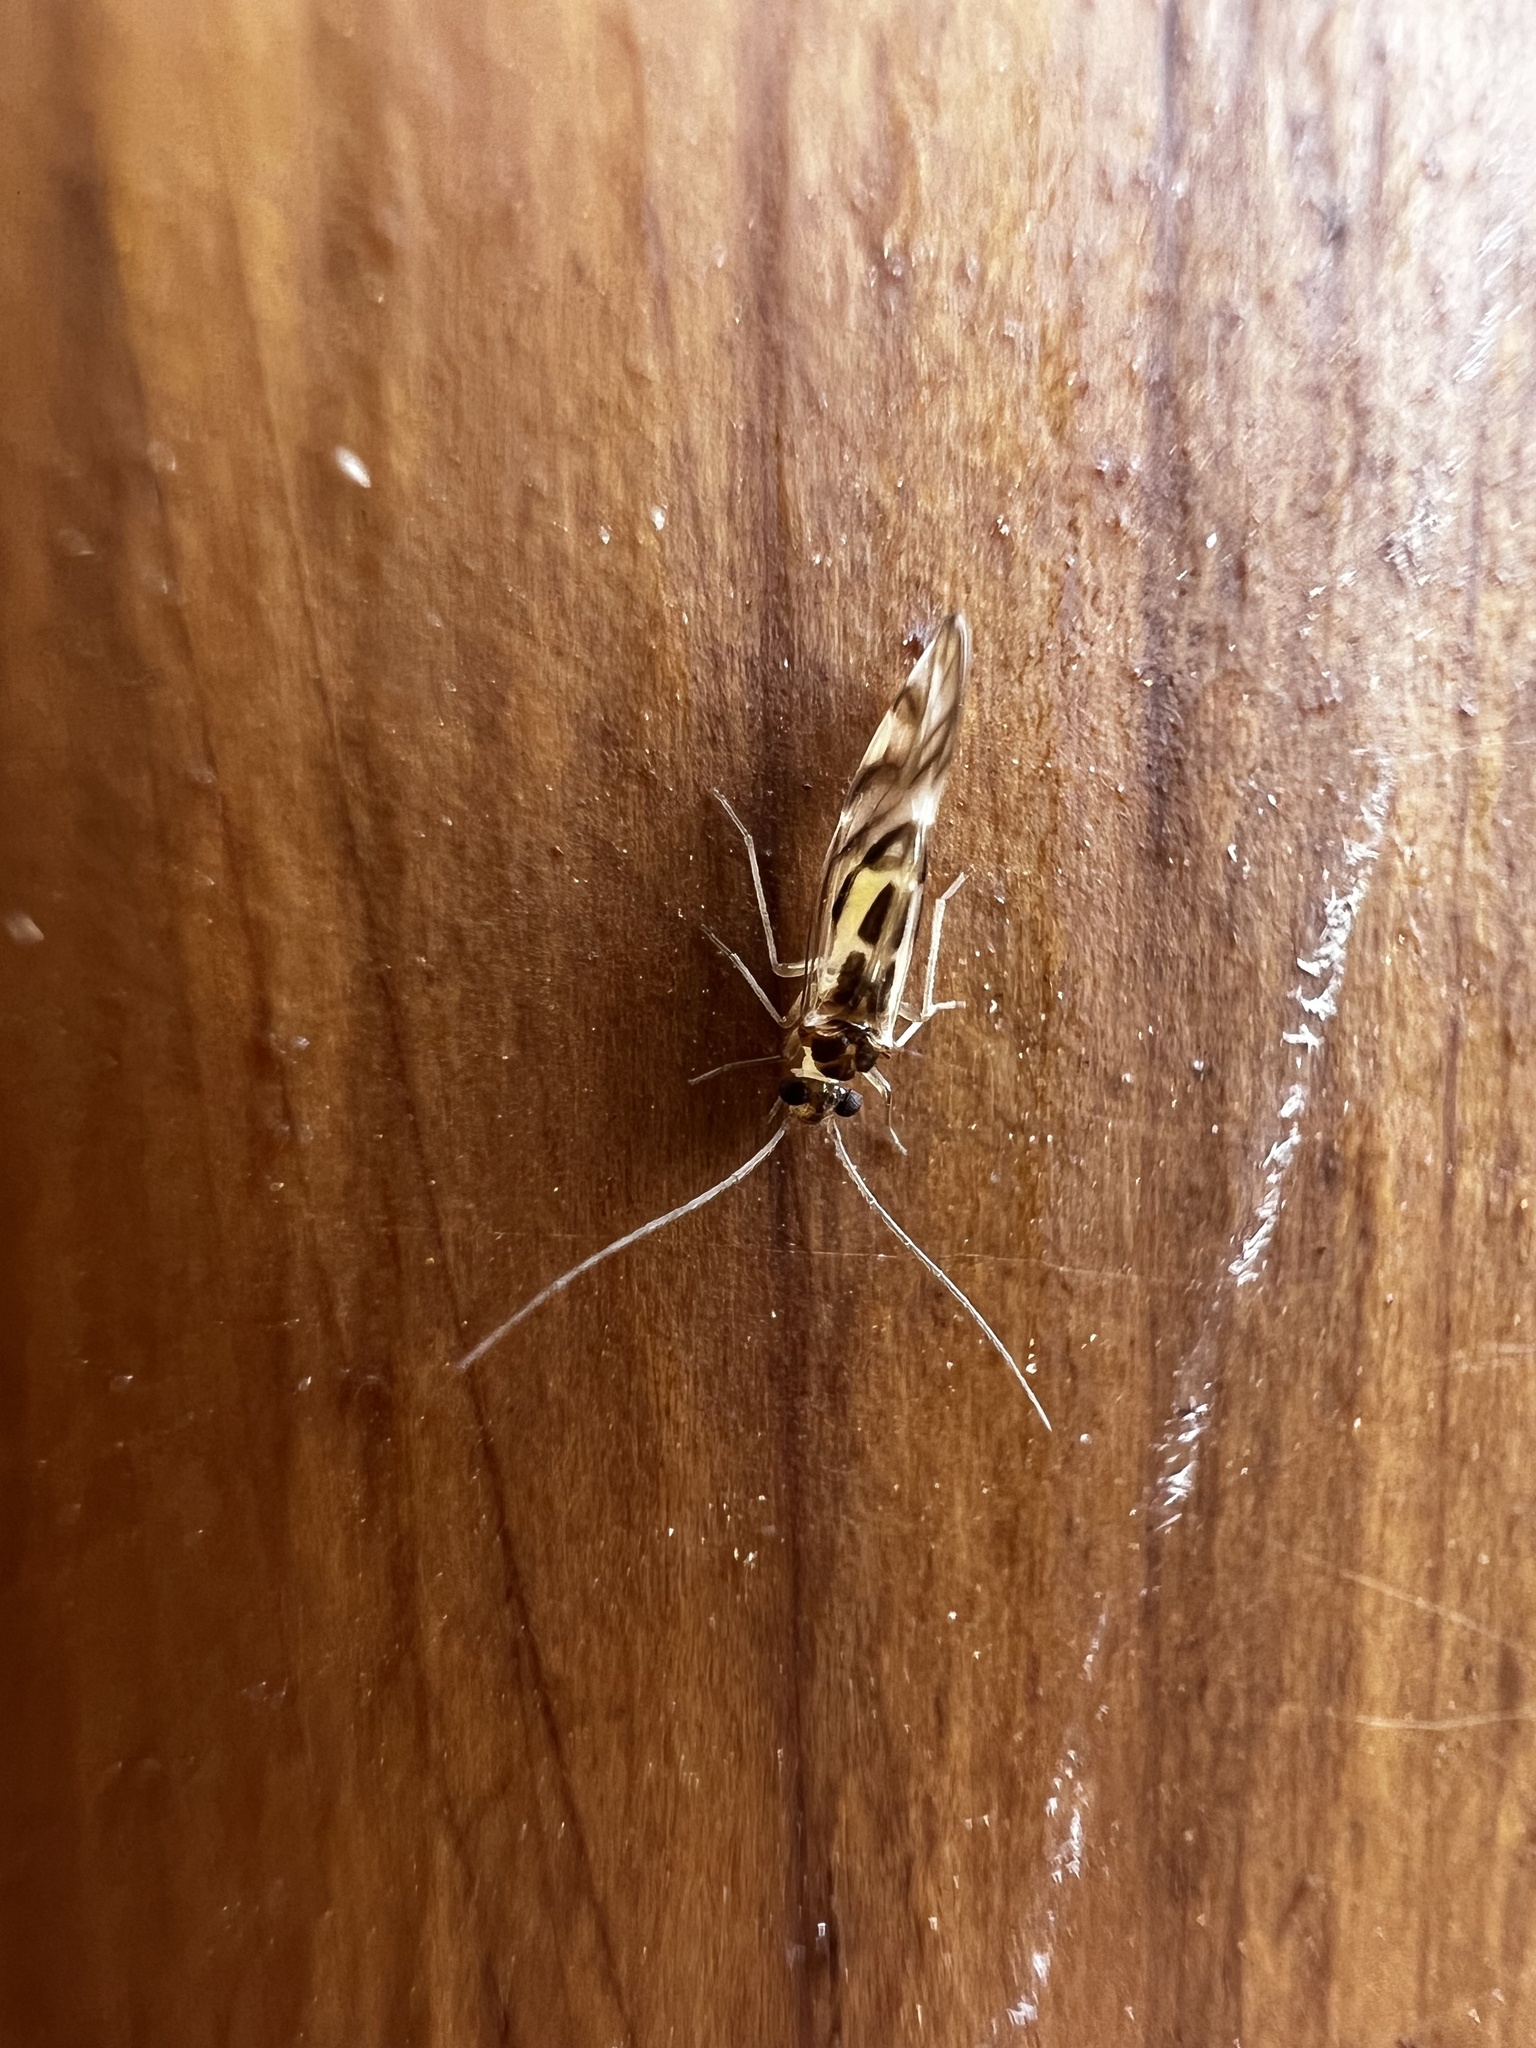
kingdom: Animalia
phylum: Arthropoda
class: Insecta
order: Psocodea
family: Stenopsocidae
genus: Graphopsocus
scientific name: Graphopsocus cruciatus
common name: Lizard bark louse
